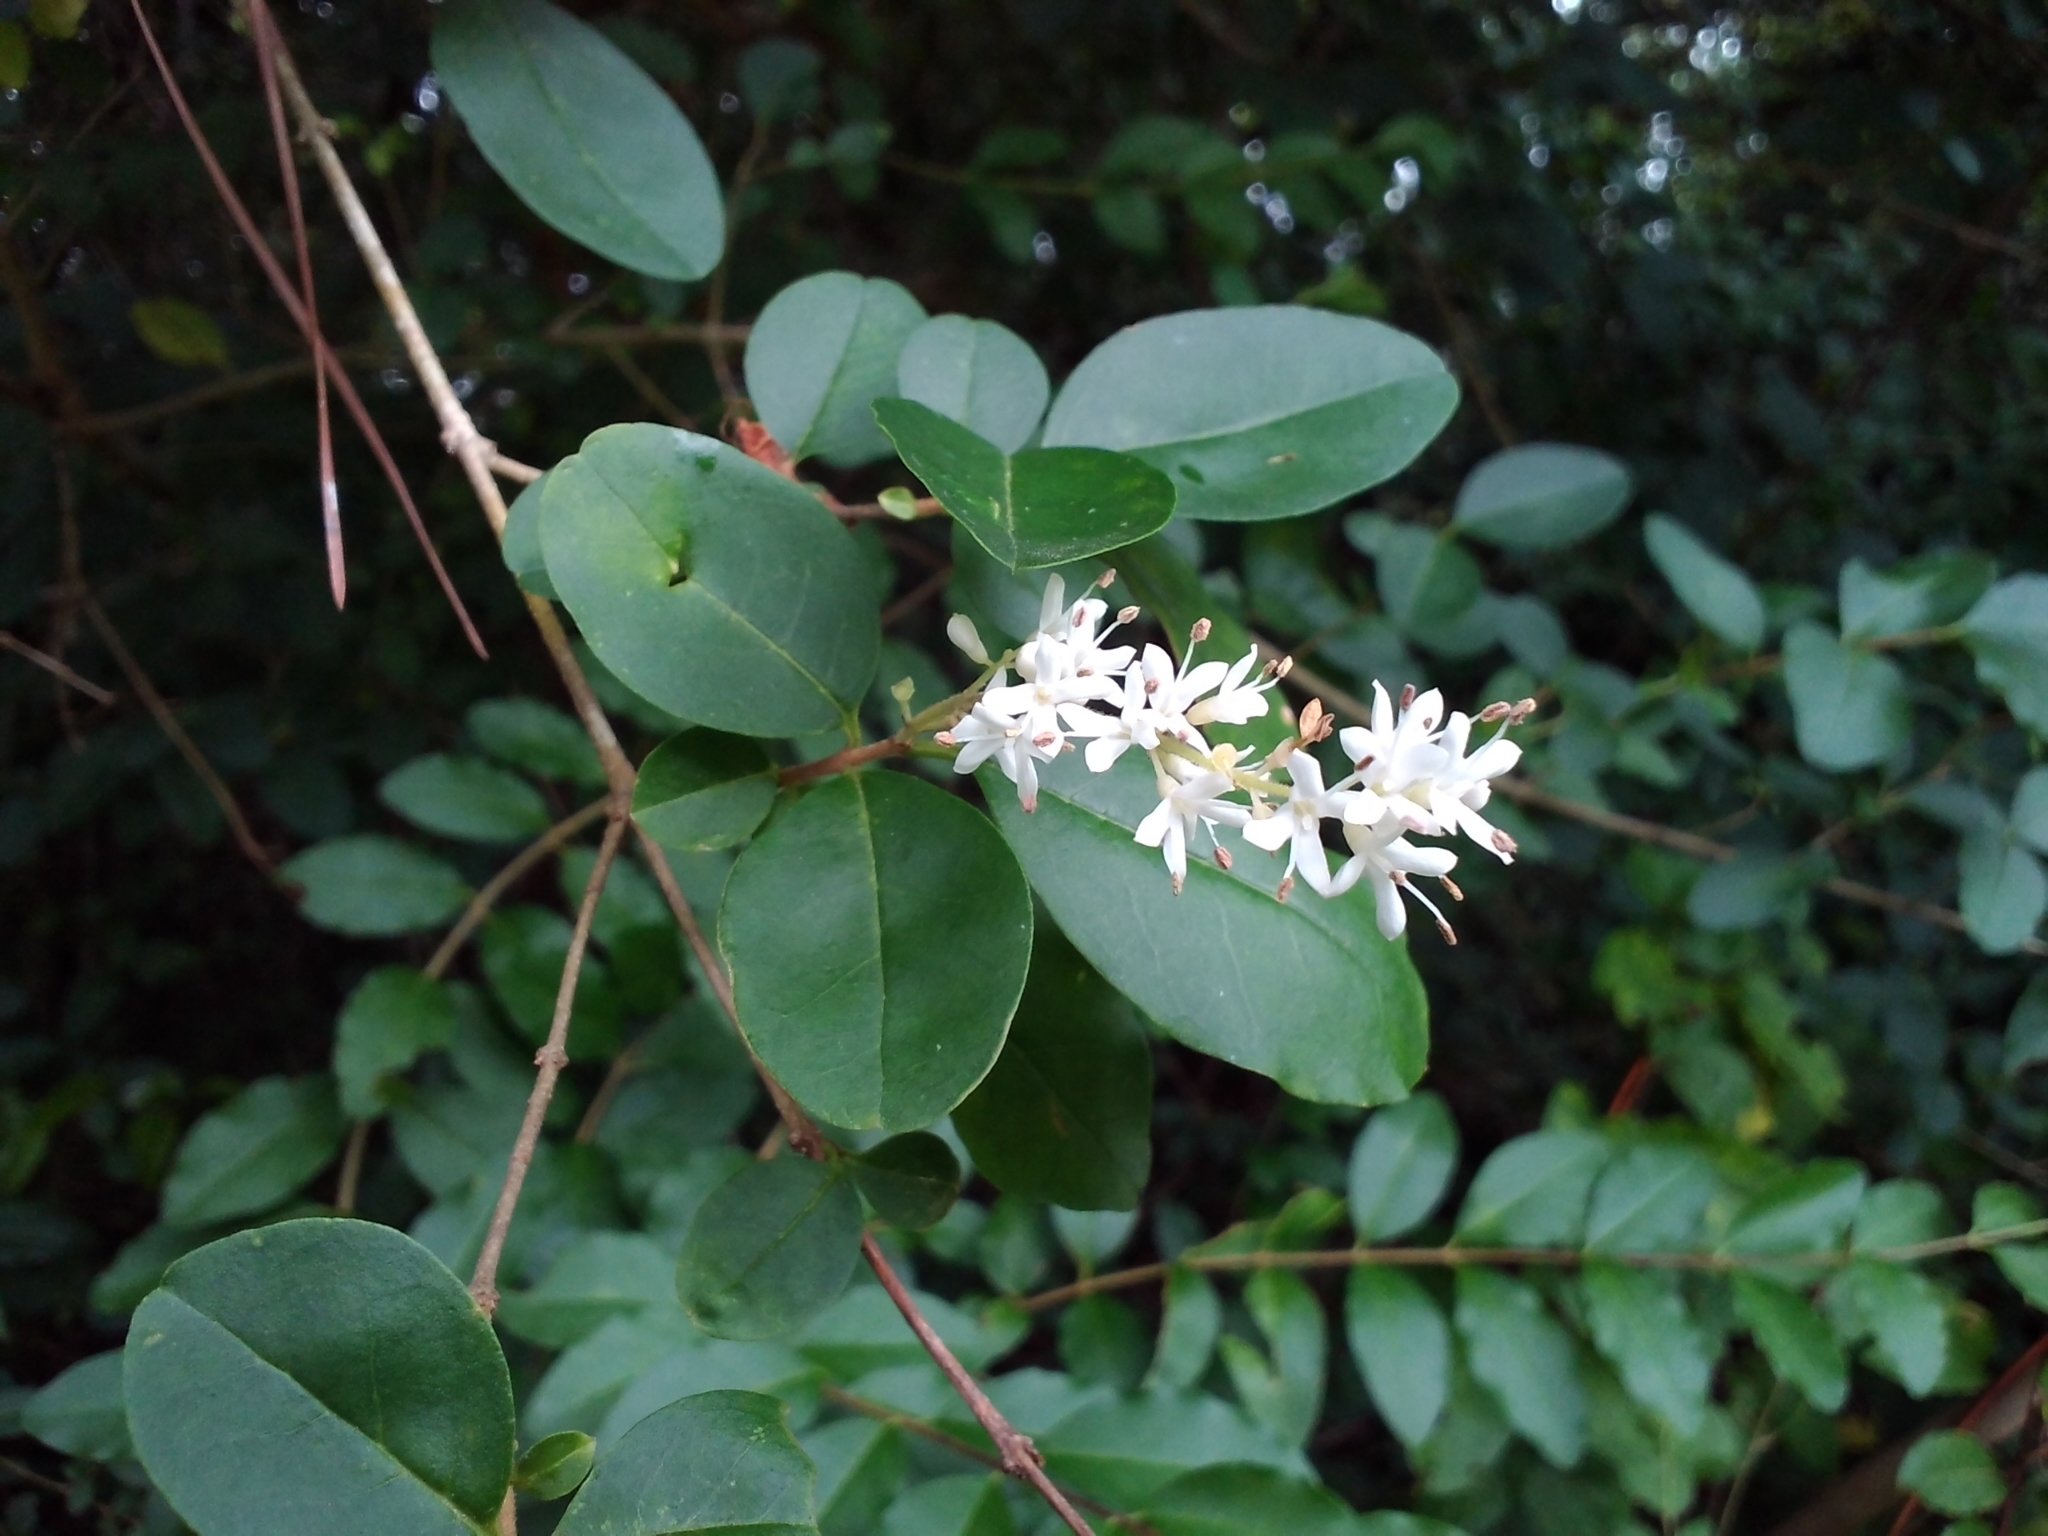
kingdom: Plantae
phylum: Tracheophyta
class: Magnoliopsida
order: Lamiales
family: Oleaceae
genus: Ligustrum
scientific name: Ligustrum sinense
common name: Chinese privet
